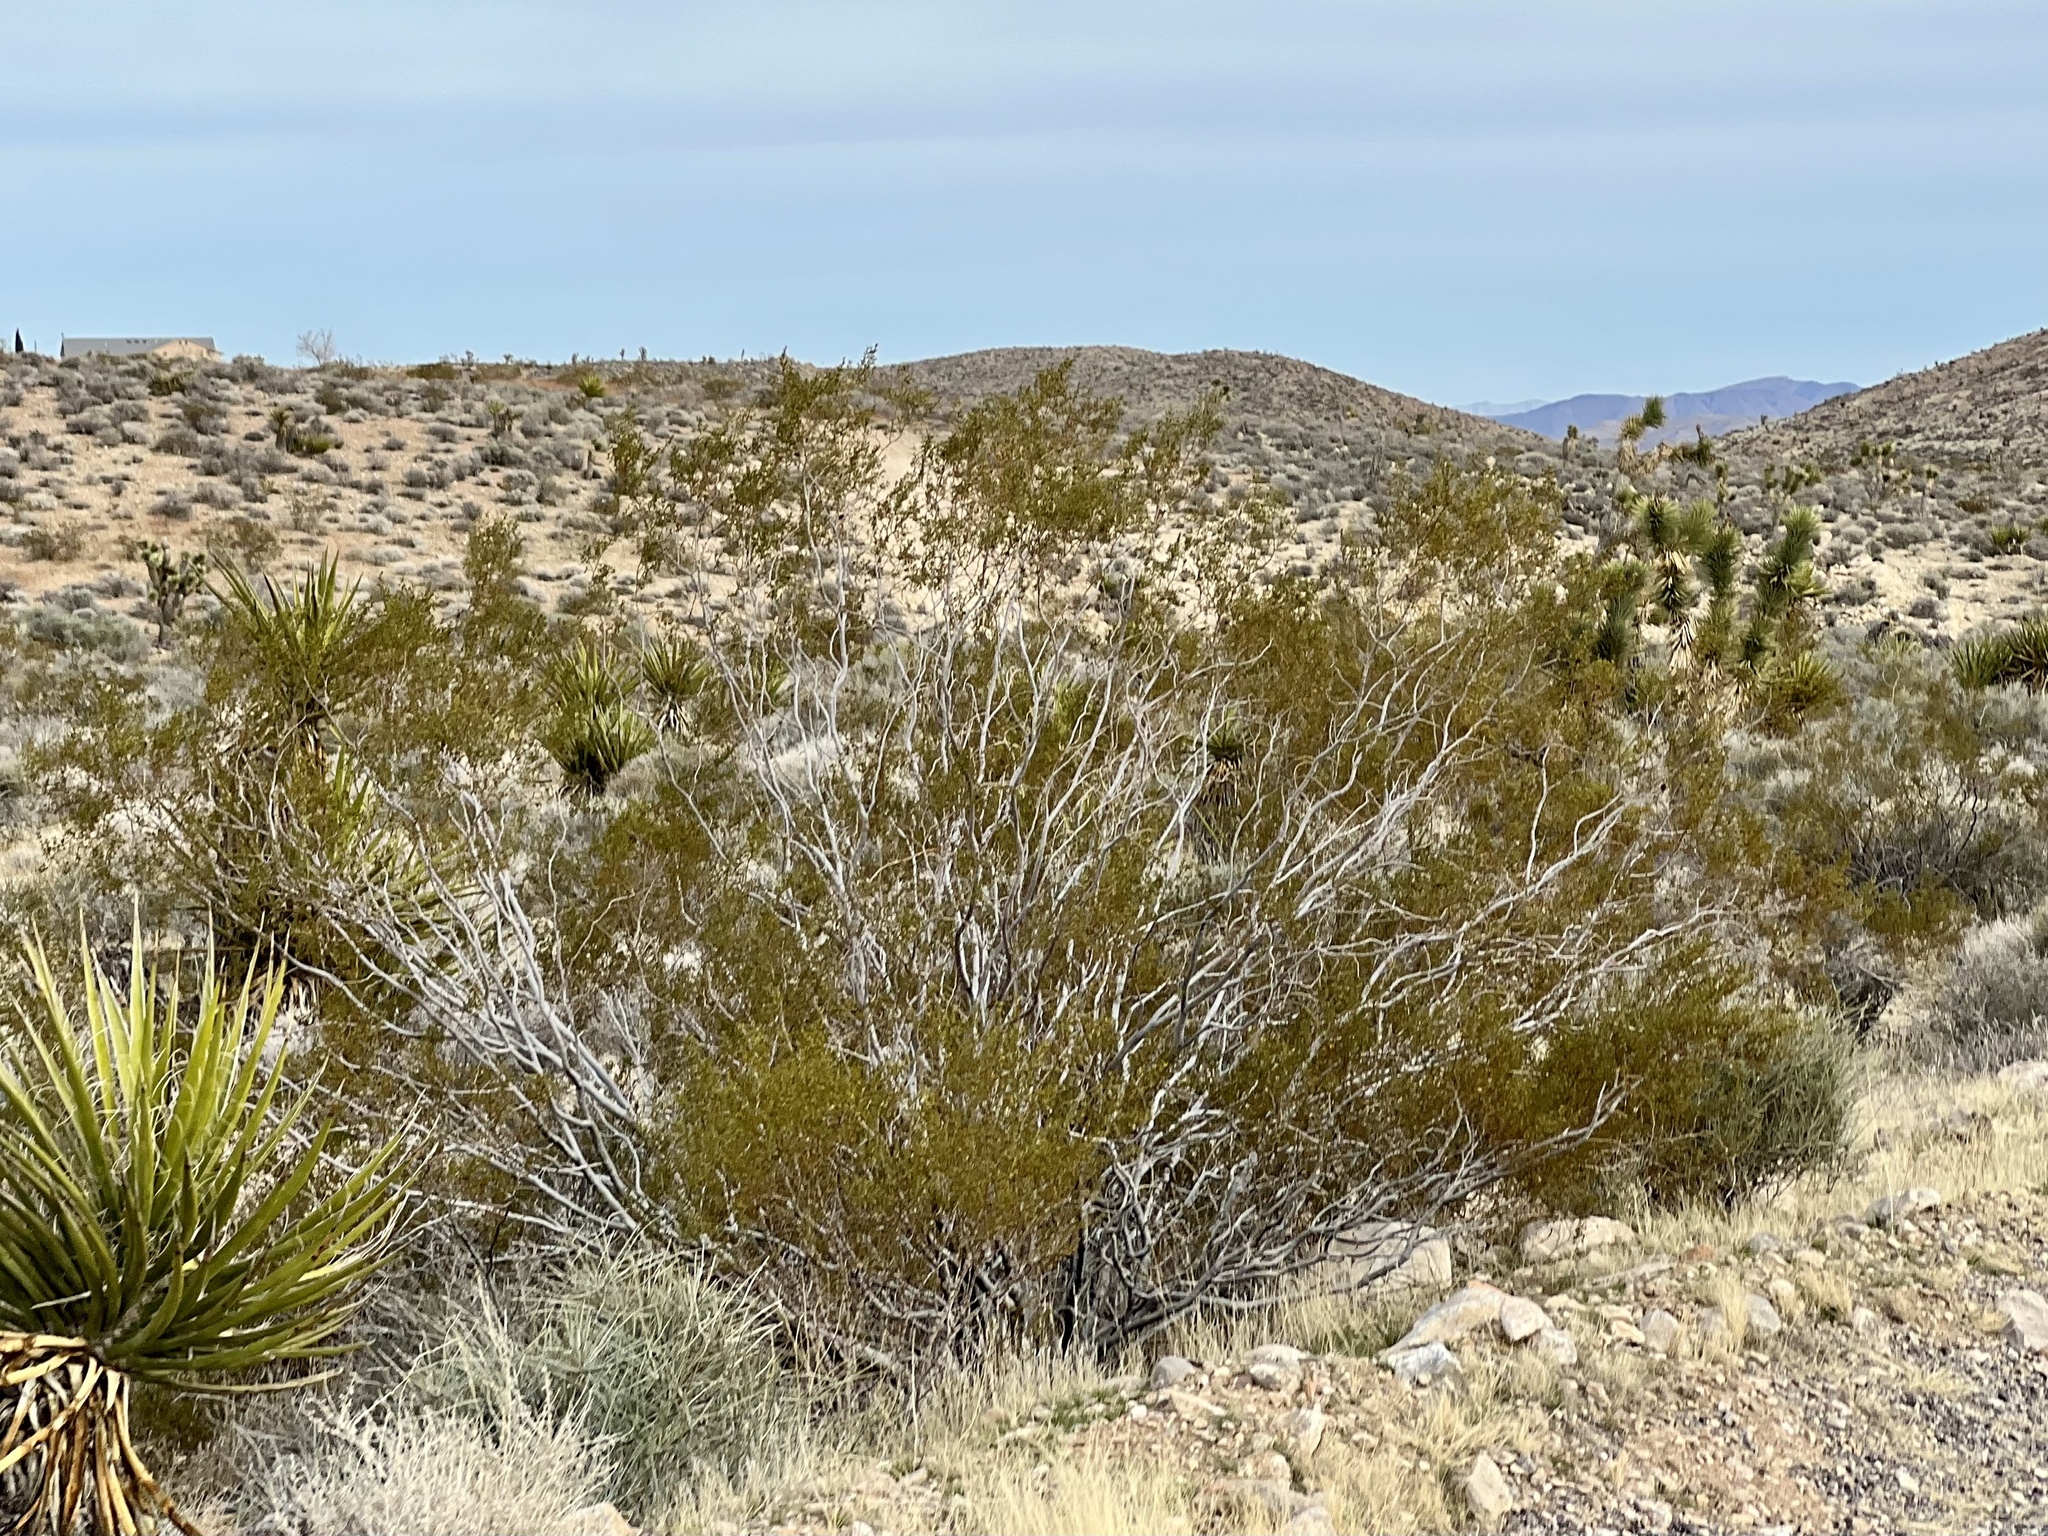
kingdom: Plantae
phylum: Tracheophyta
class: Magnoliopsida
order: Zygophyllales
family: Zygophyllaceae
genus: Larrea
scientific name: Larrea tridentata
